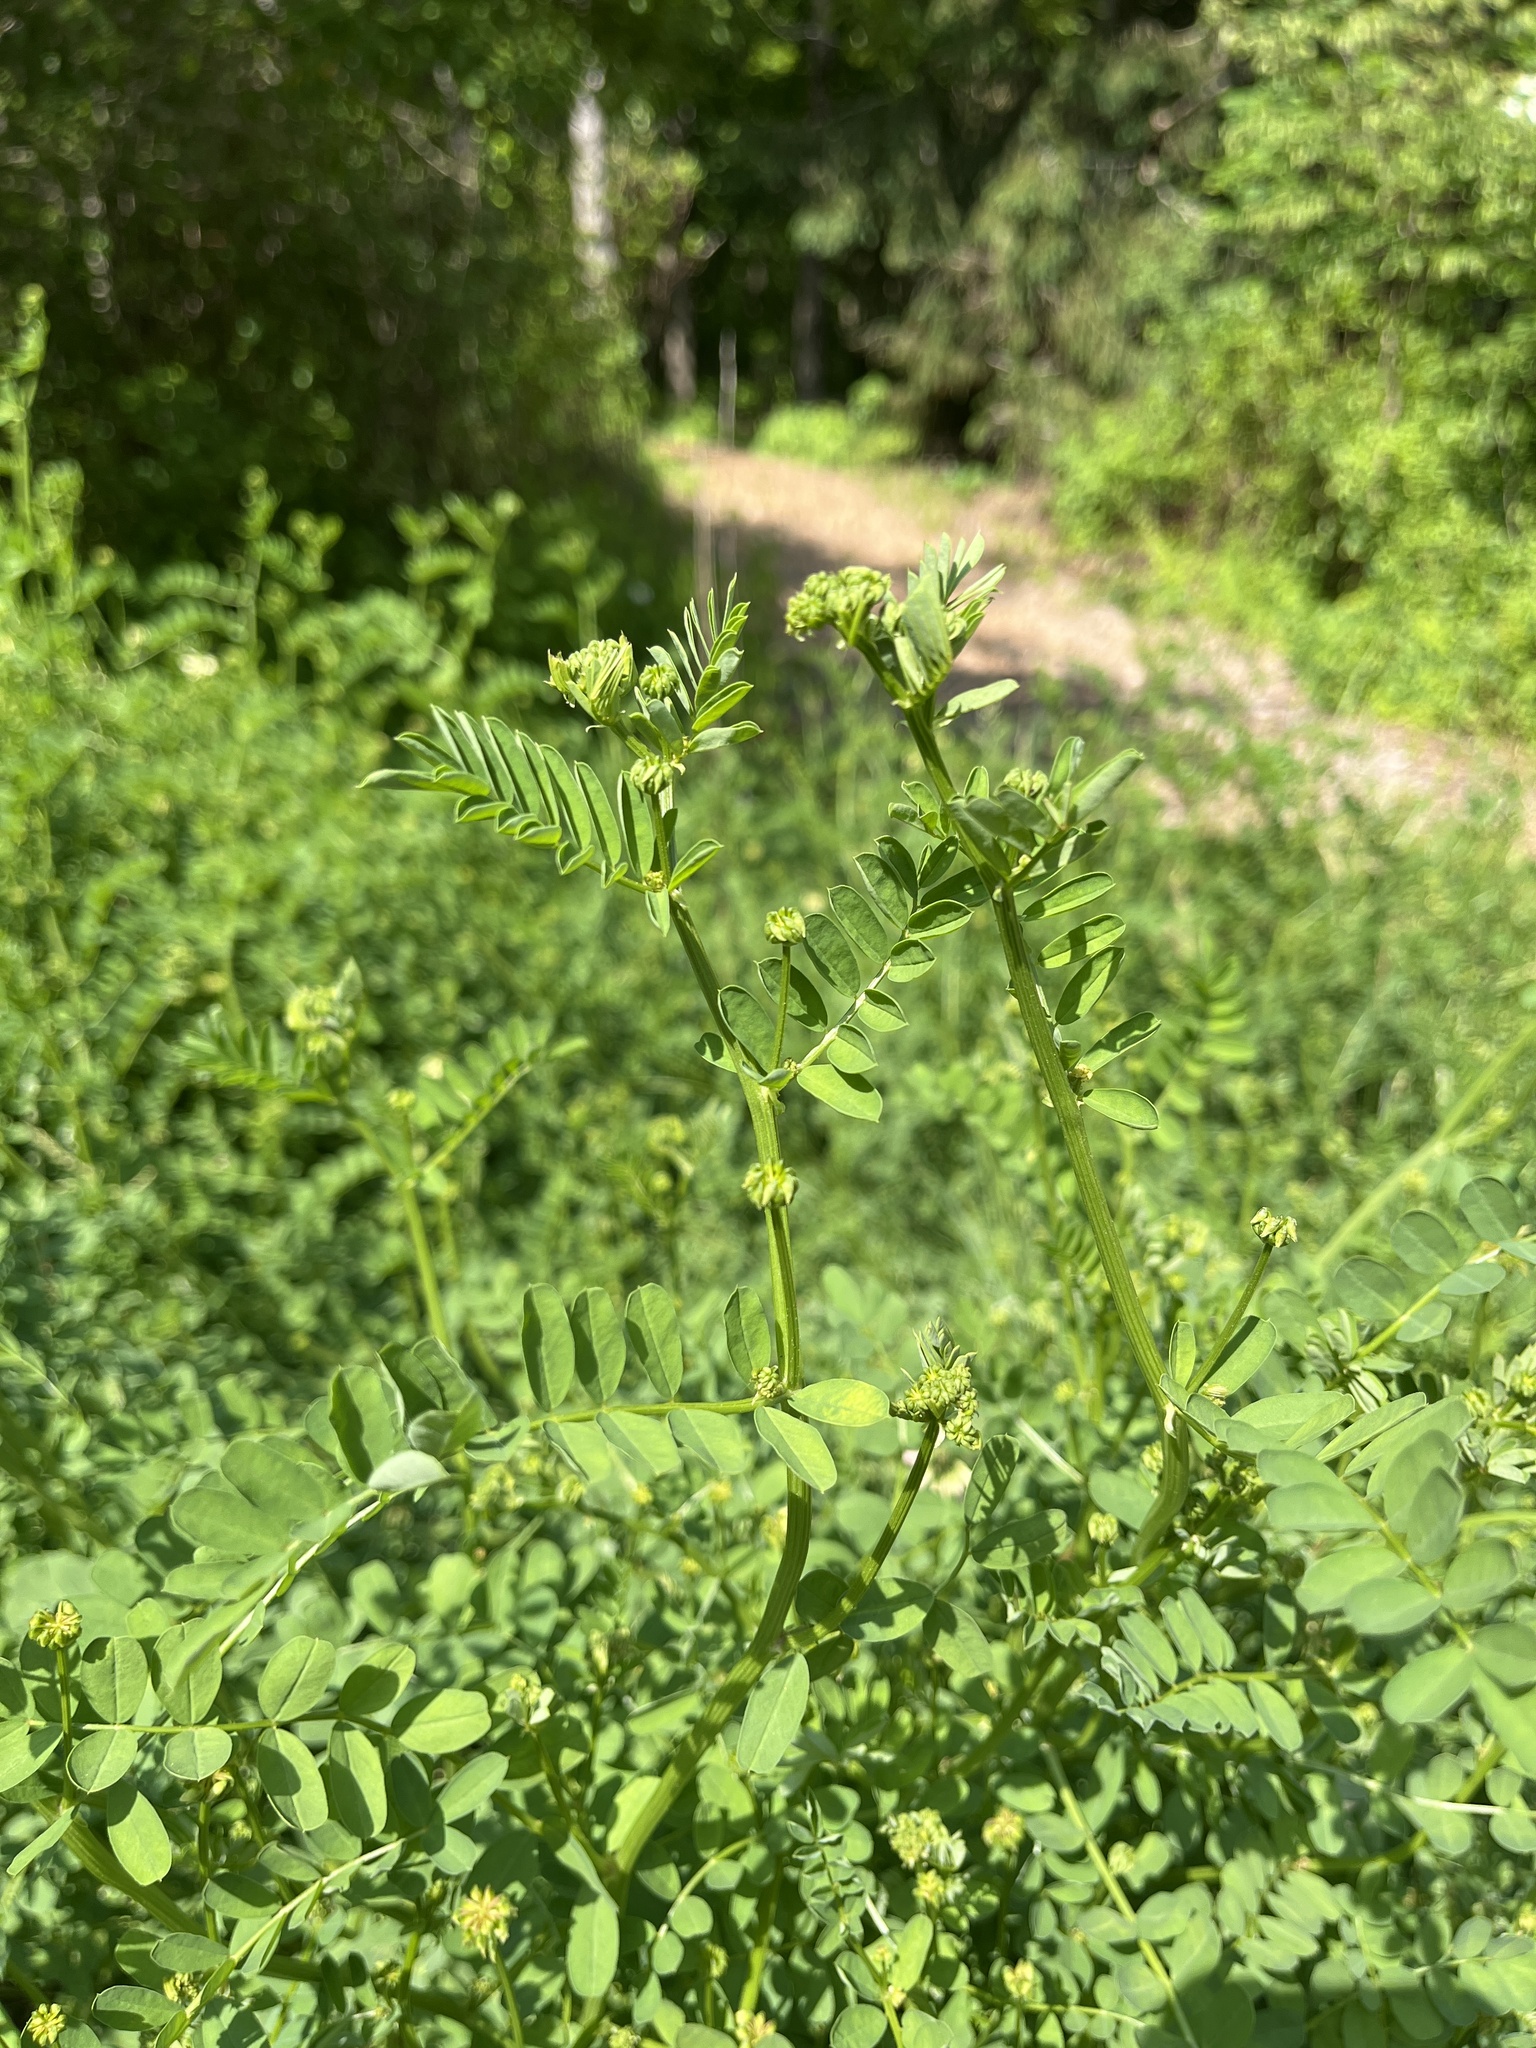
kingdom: Plantae
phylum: Tracheophyta
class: Magnoliopsida
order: Fabales
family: Fabaceae
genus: Coronilla
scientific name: Coronilla varia
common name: Crownvetch
